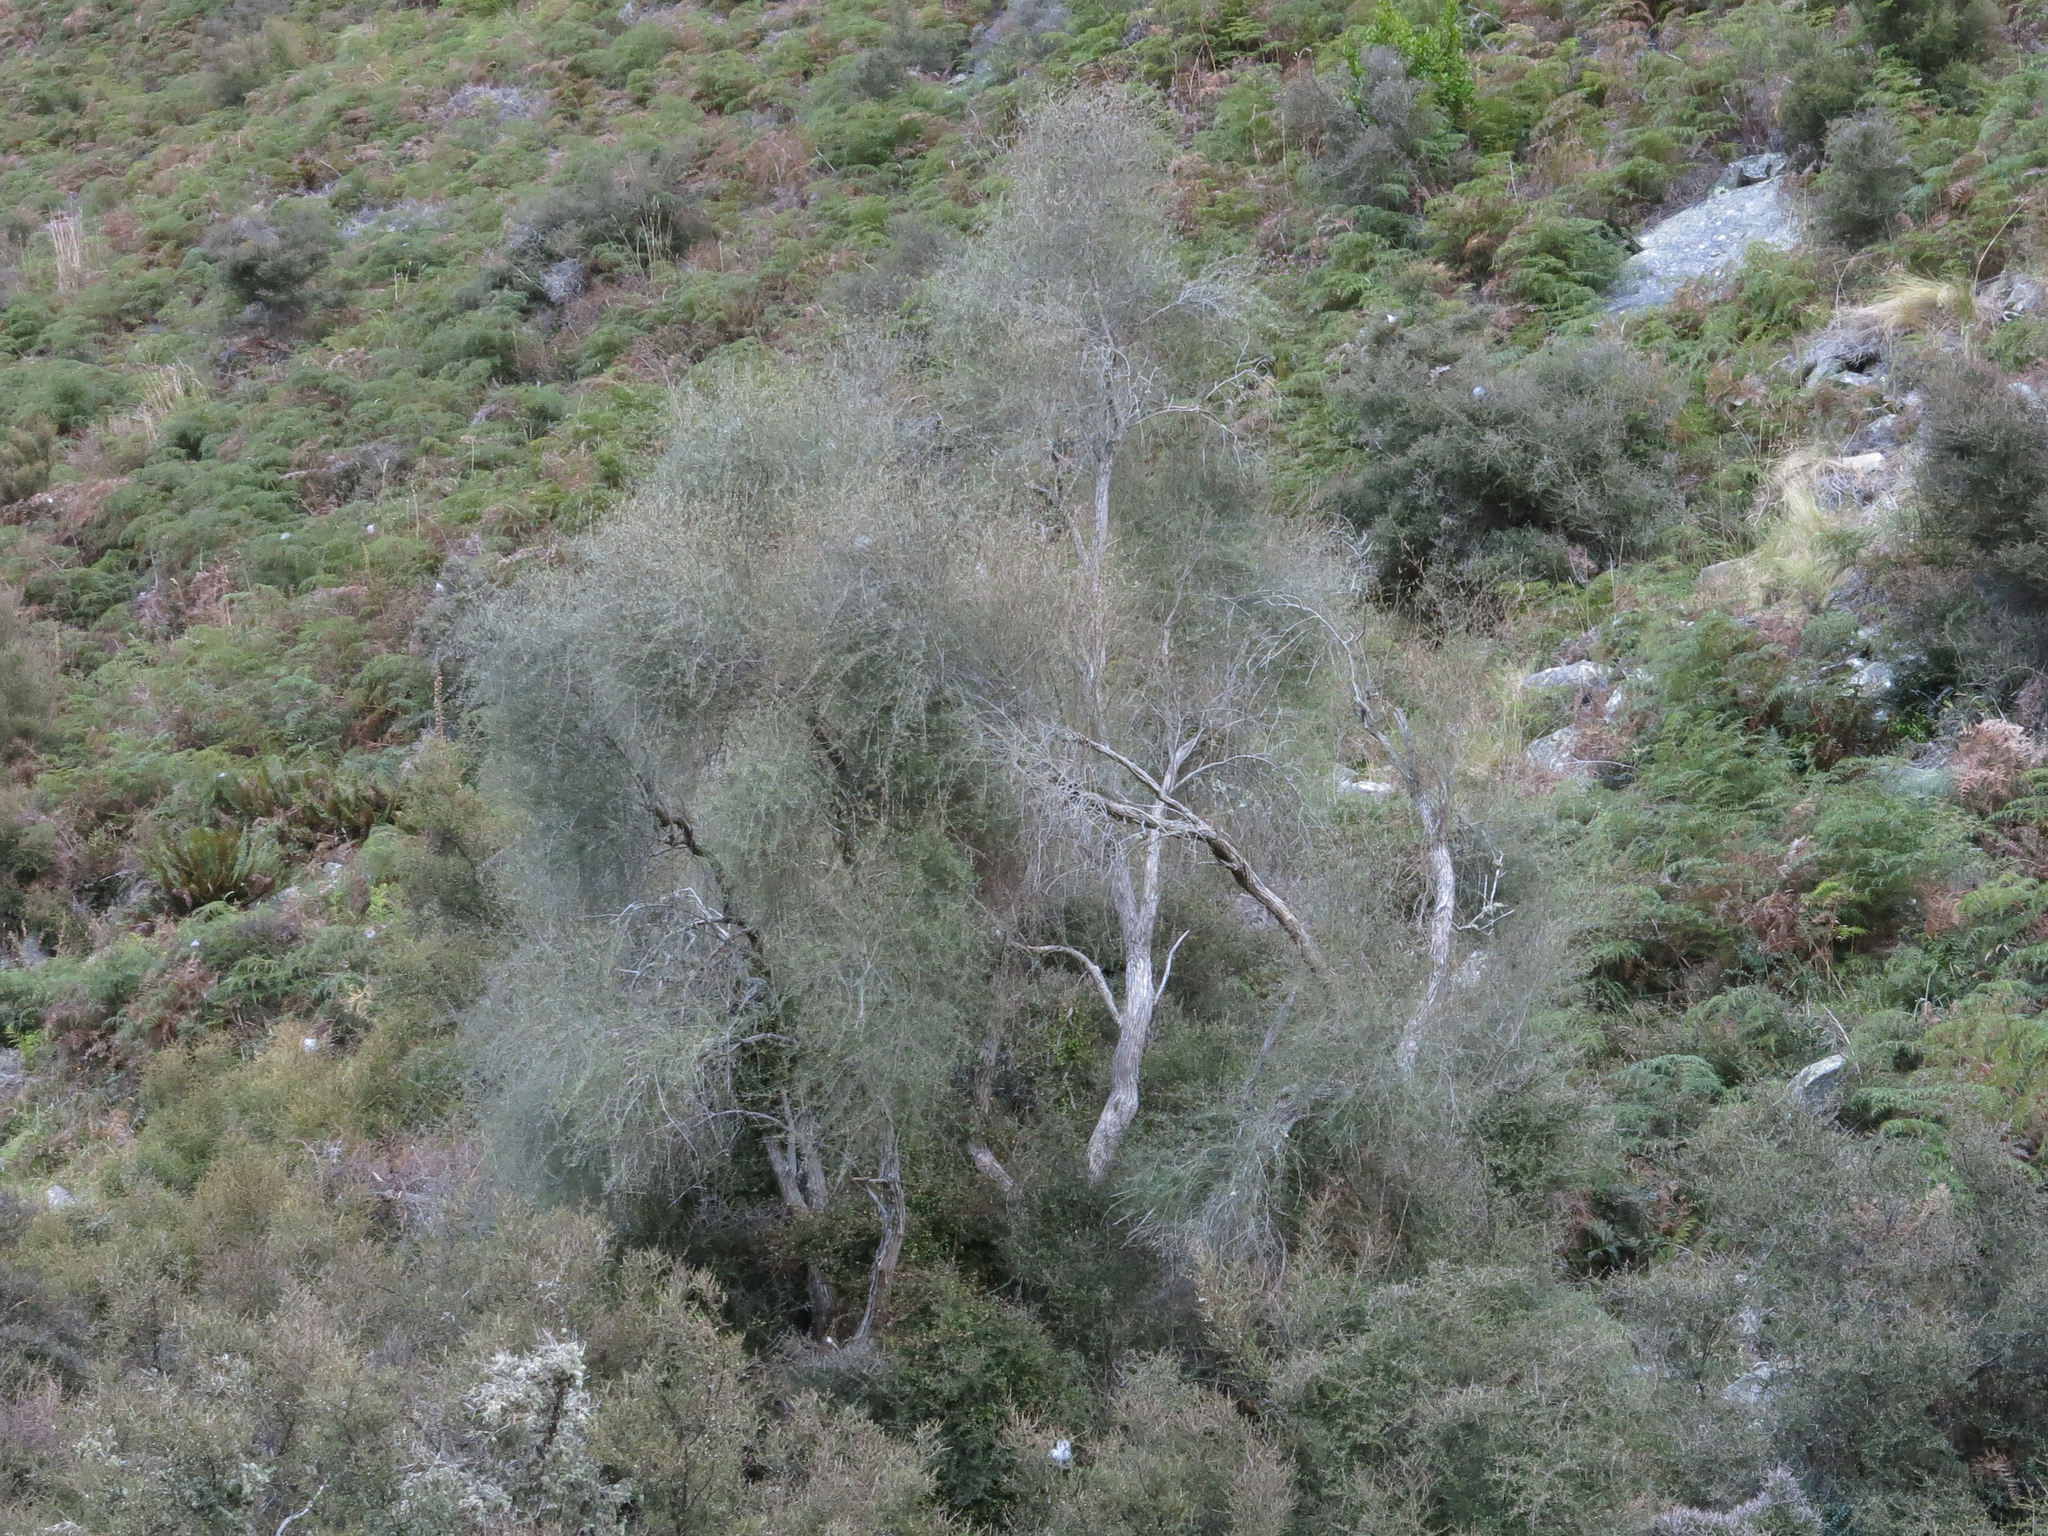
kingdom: Plantae
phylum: Tracheophyta
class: Magnoliopsida
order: Asterales
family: Asteraceae
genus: Olearia
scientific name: Olearia lineata
